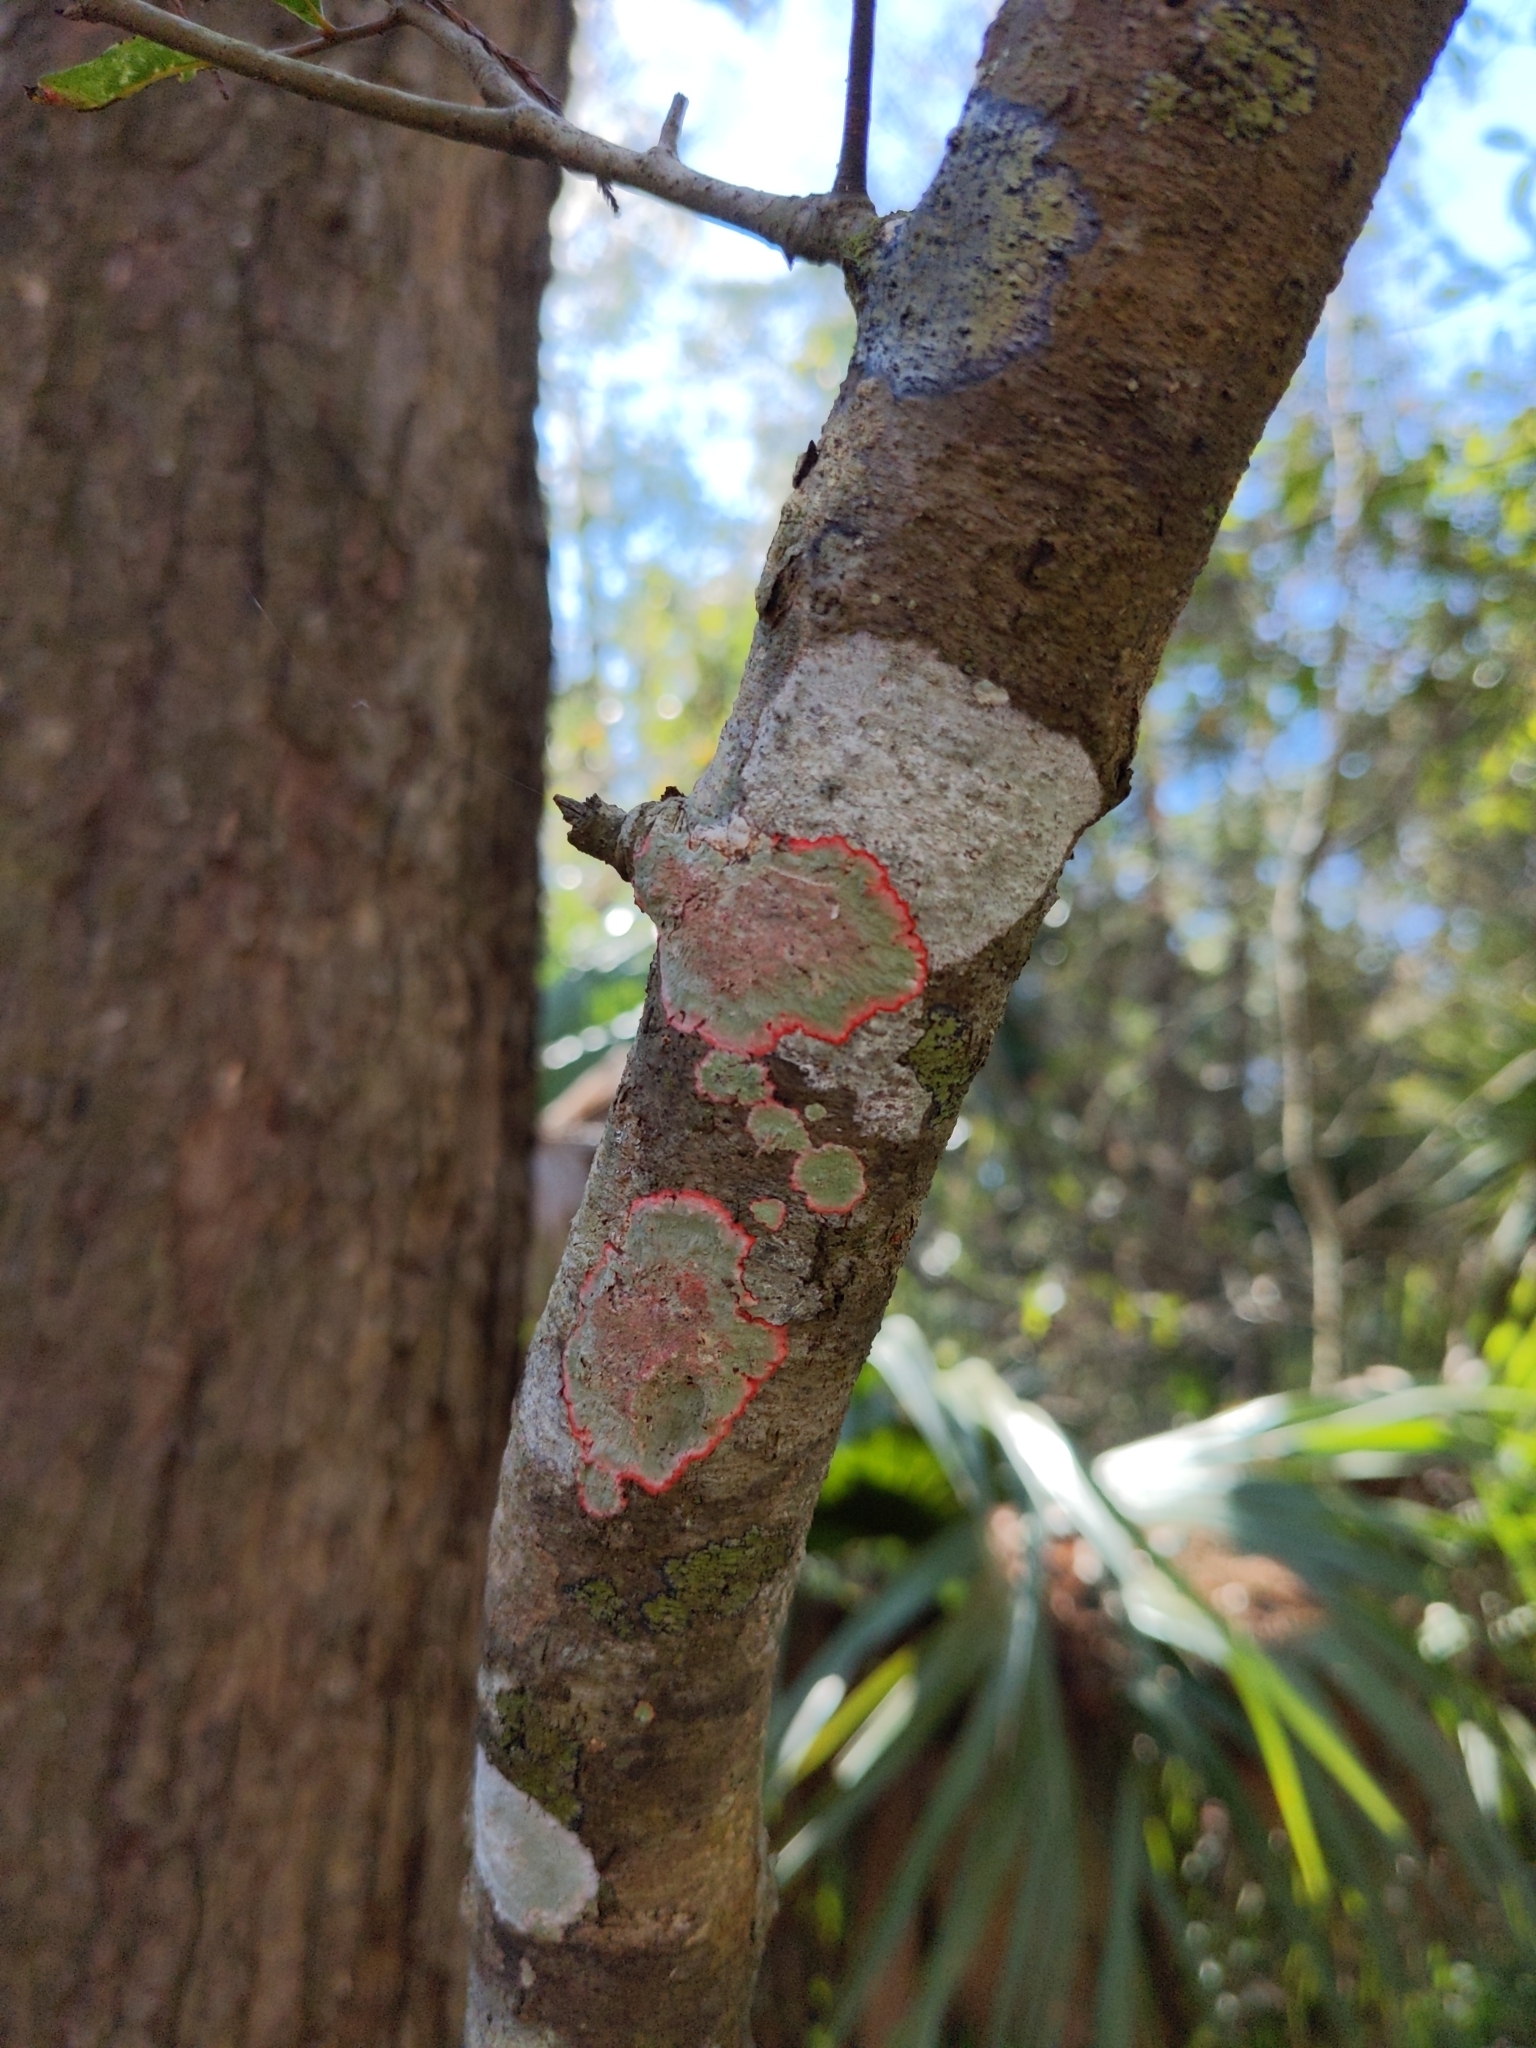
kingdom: Fungi
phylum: Ascomycota
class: Arthoniomycetes
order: Arthoniales
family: Arthoniaceae
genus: Herpothallon
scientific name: Herpothallon rubrocinctum
